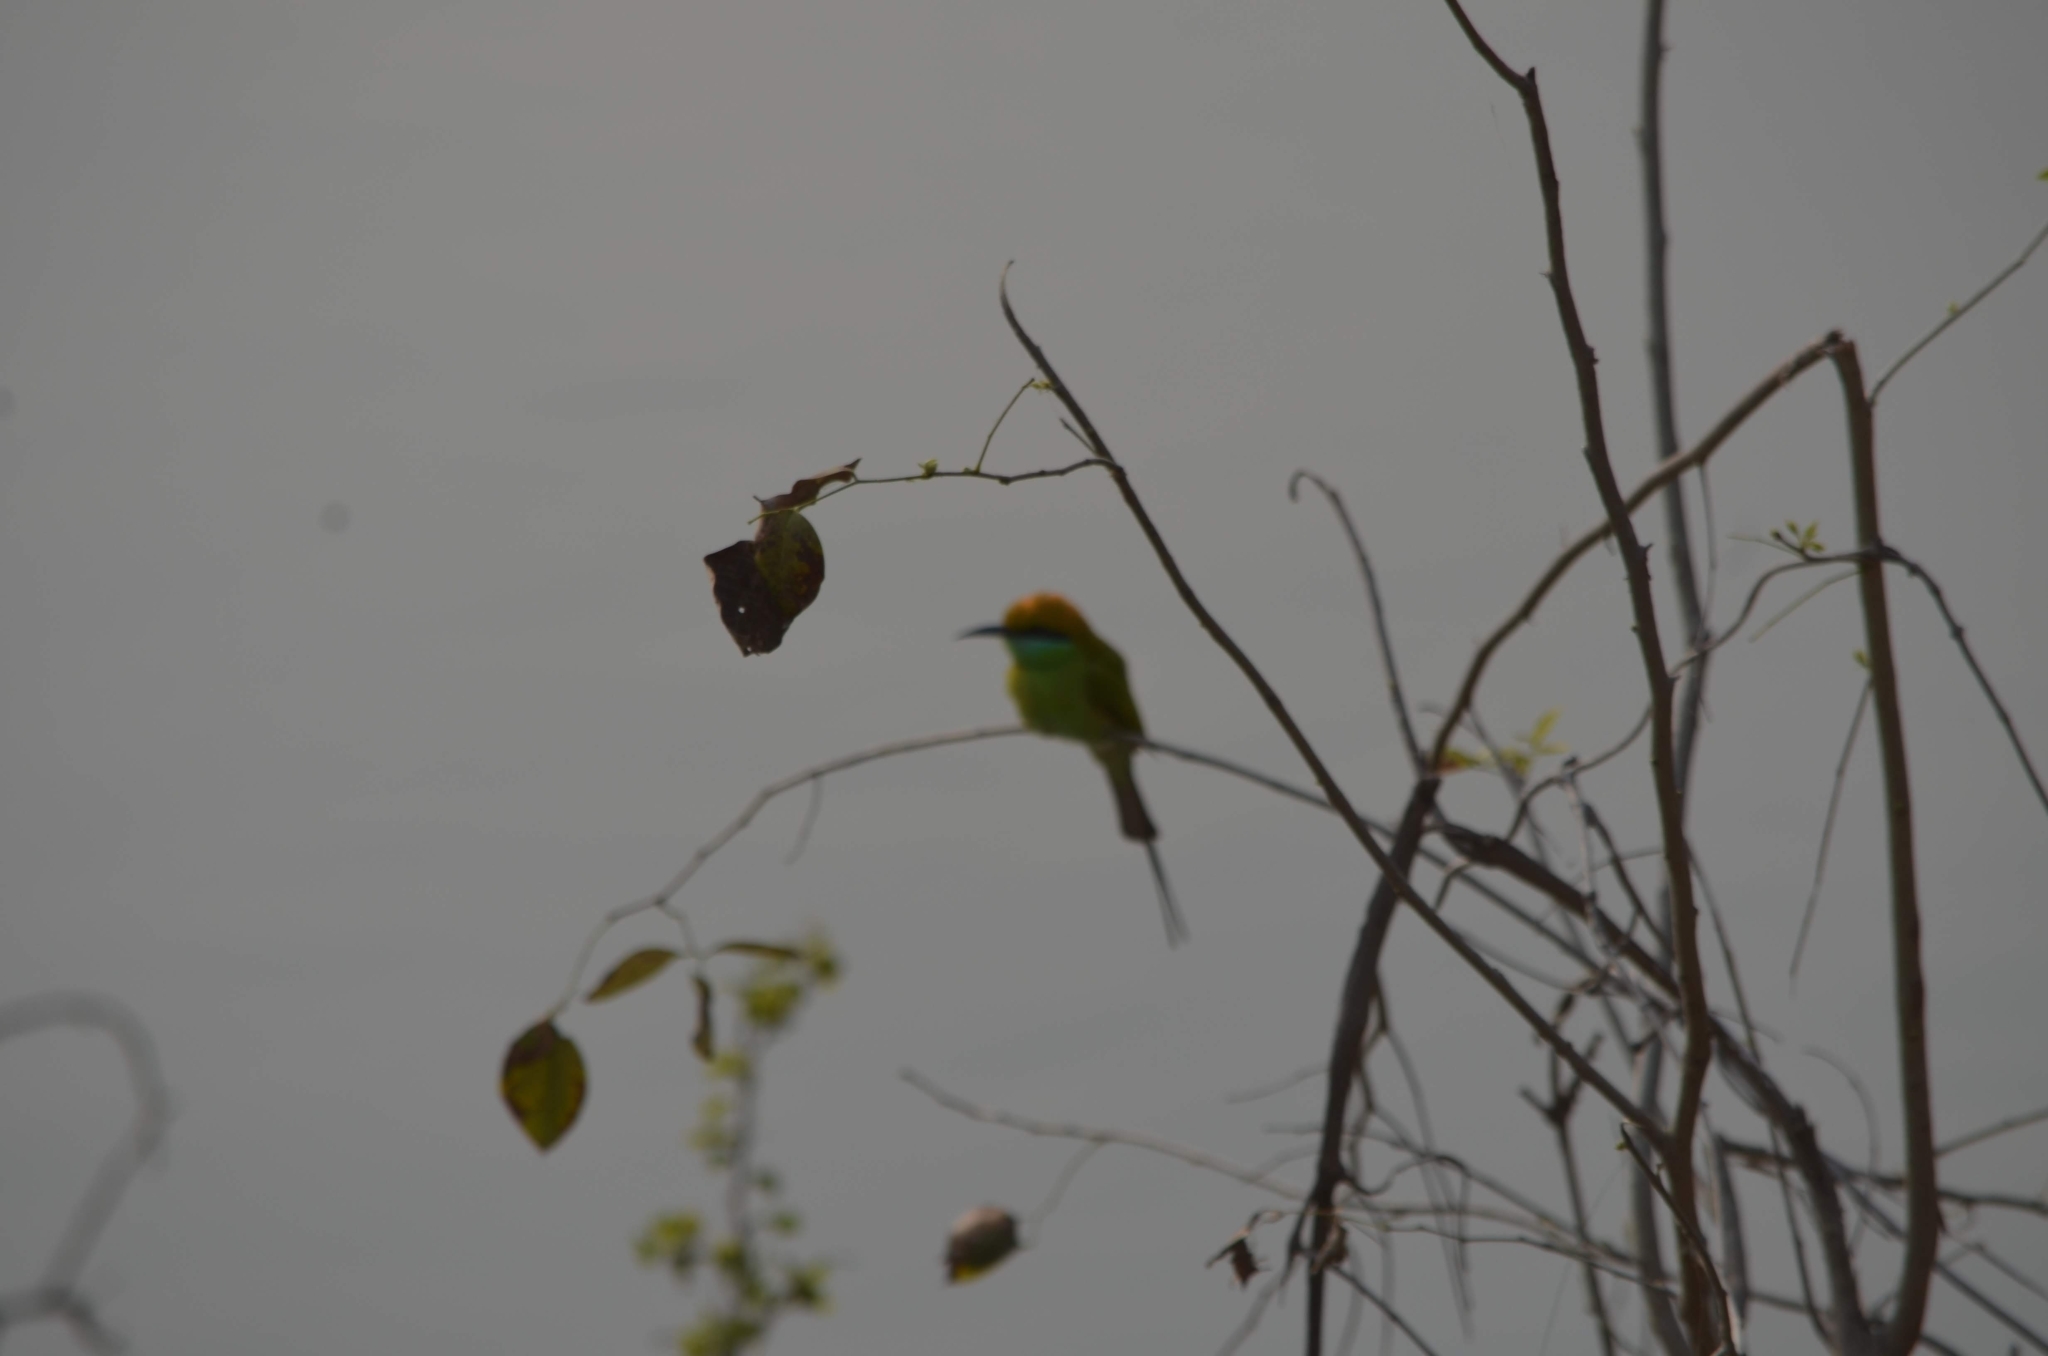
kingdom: Animalia
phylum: Chordata
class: Aves
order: Coraciiformes
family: Meropidae
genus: Merops
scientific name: Merops orientalis
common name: Green bee-eater
